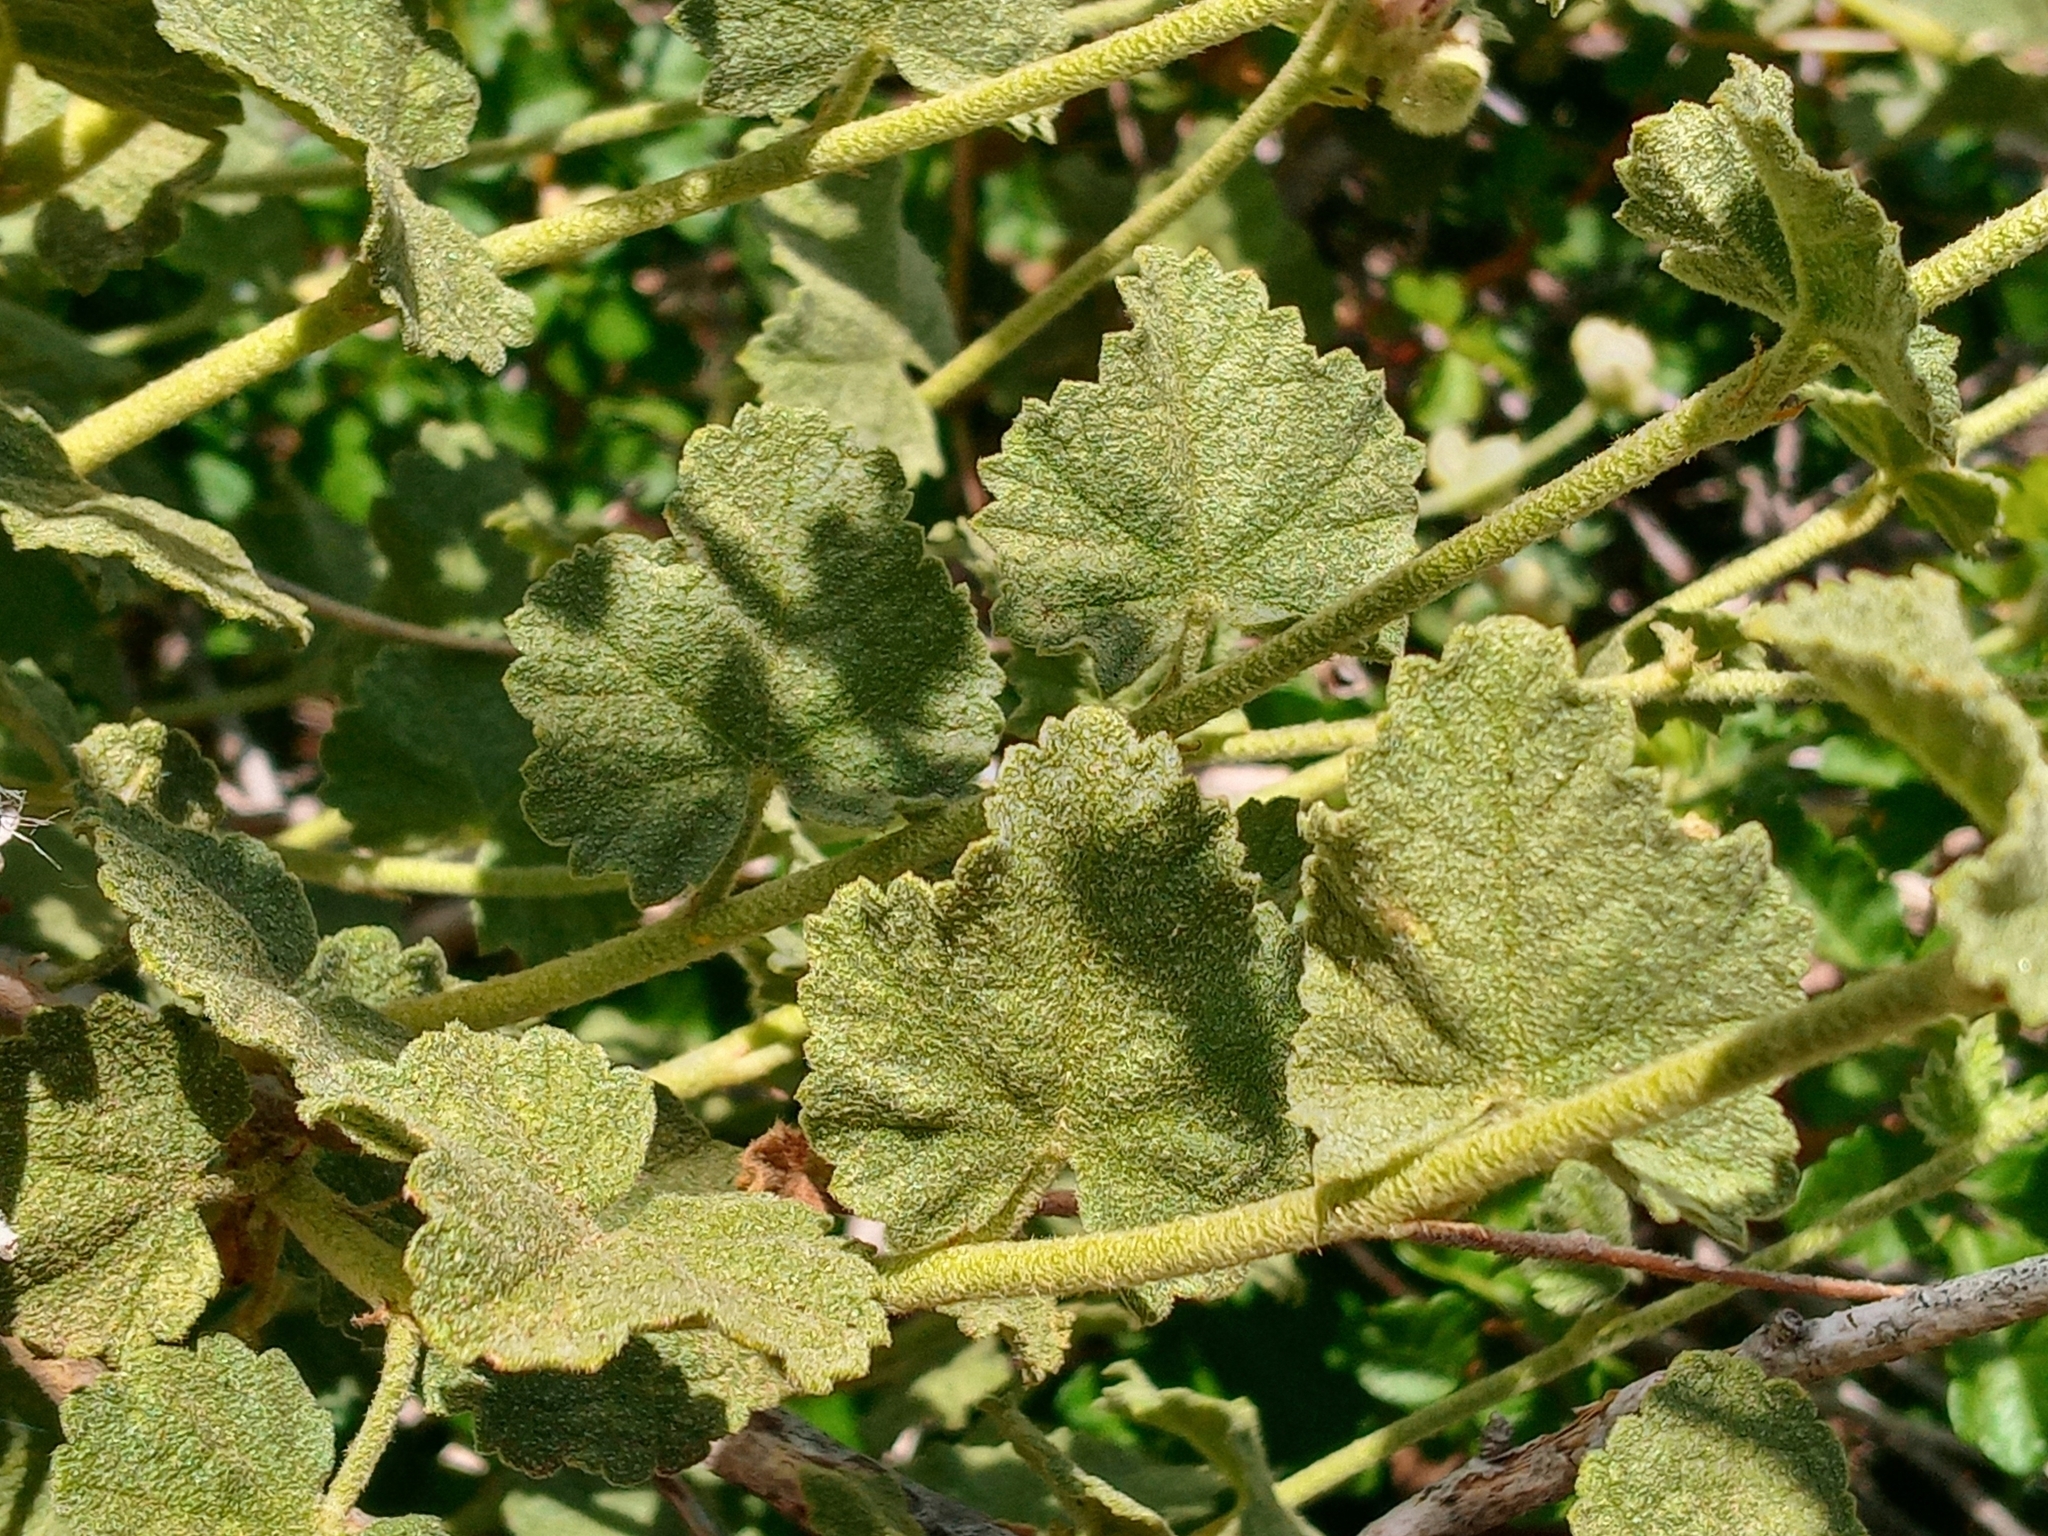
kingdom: Plantae
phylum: Tracheophyta
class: Magnoliopsida
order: Malvales
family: Malvaceae
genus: Malacothamnus
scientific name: Malacothamnus fremontii
